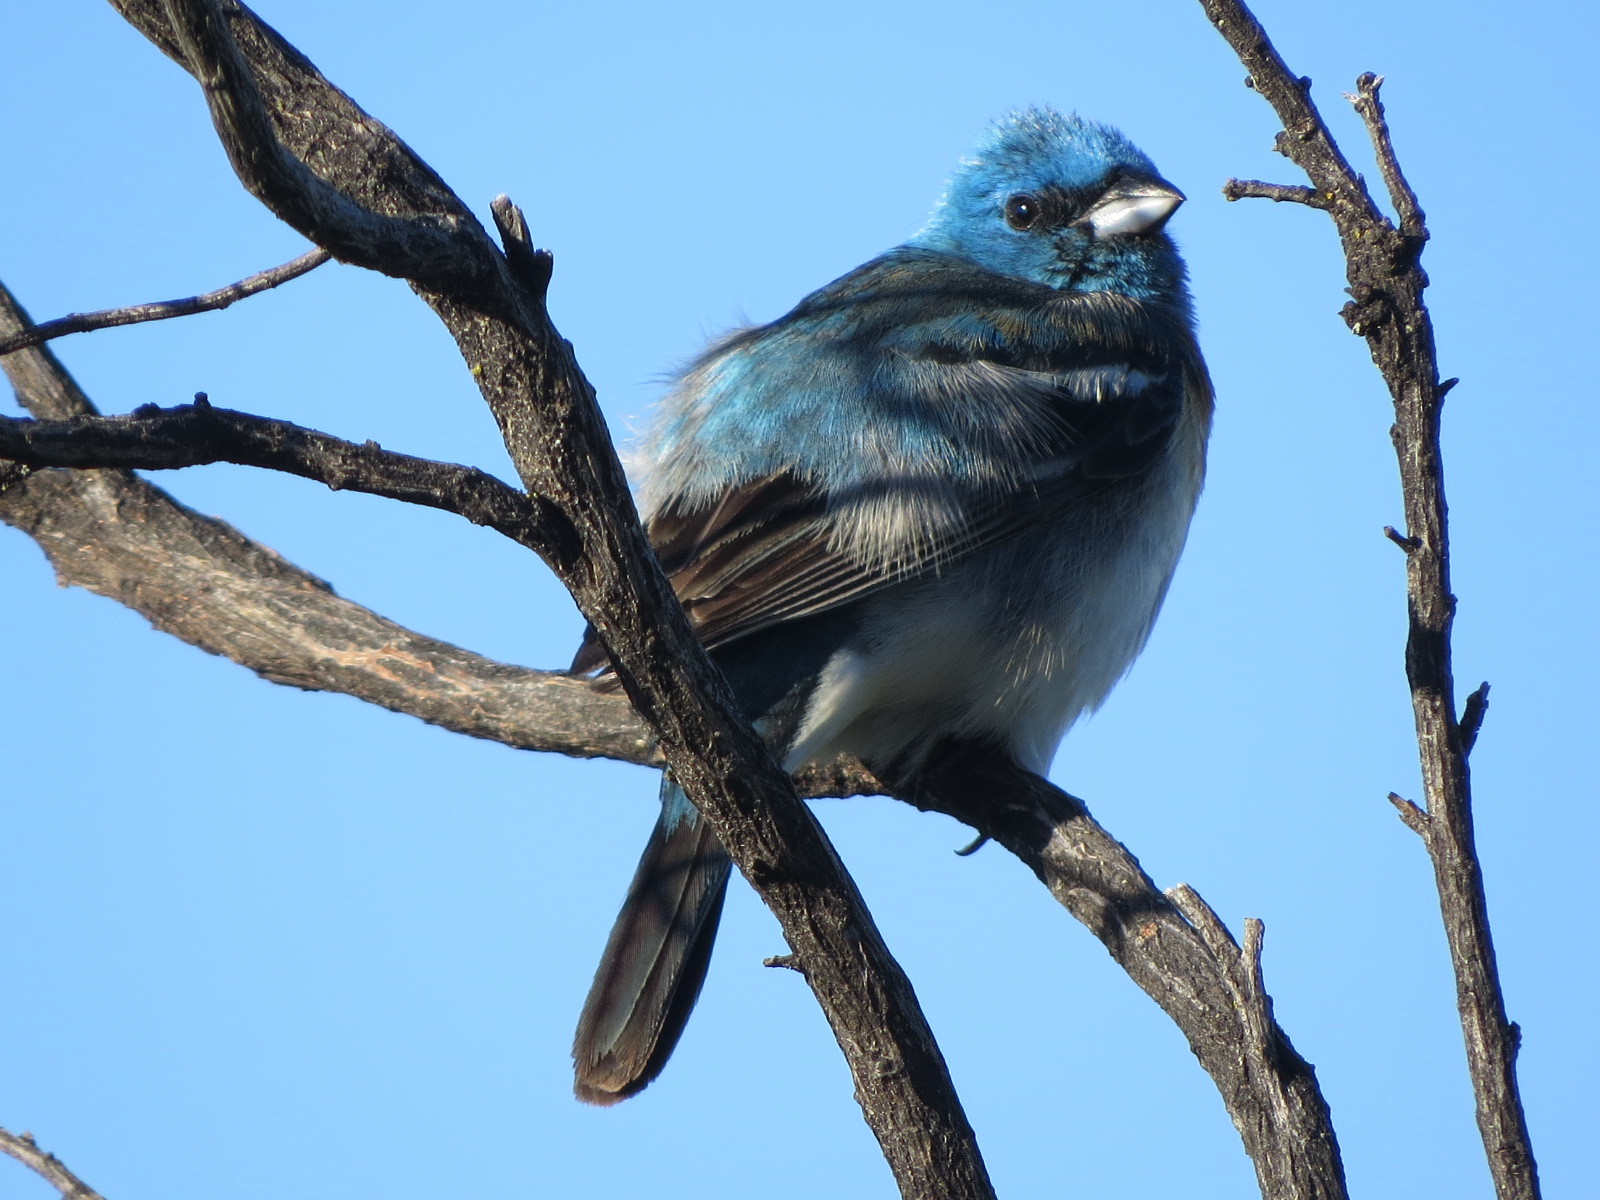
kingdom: Animalia
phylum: Chordata
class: Aves
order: Passeriformes
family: Cardinalidae
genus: Passerina
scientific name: Passerina amoena
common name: Lazuli bunting
